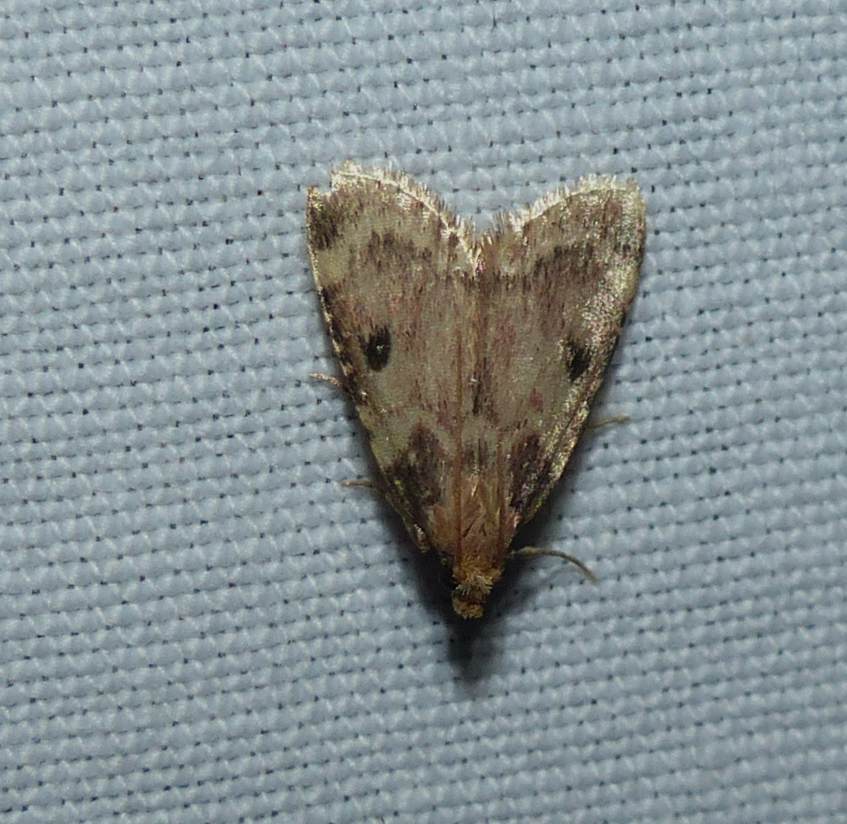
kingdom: Animalia
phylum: Arthropoda
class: Insecta
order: Lepidoptera
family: Pyralidae
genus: Aglossa
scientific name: Aglossa costiferalis
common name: Calico pyralid moth
